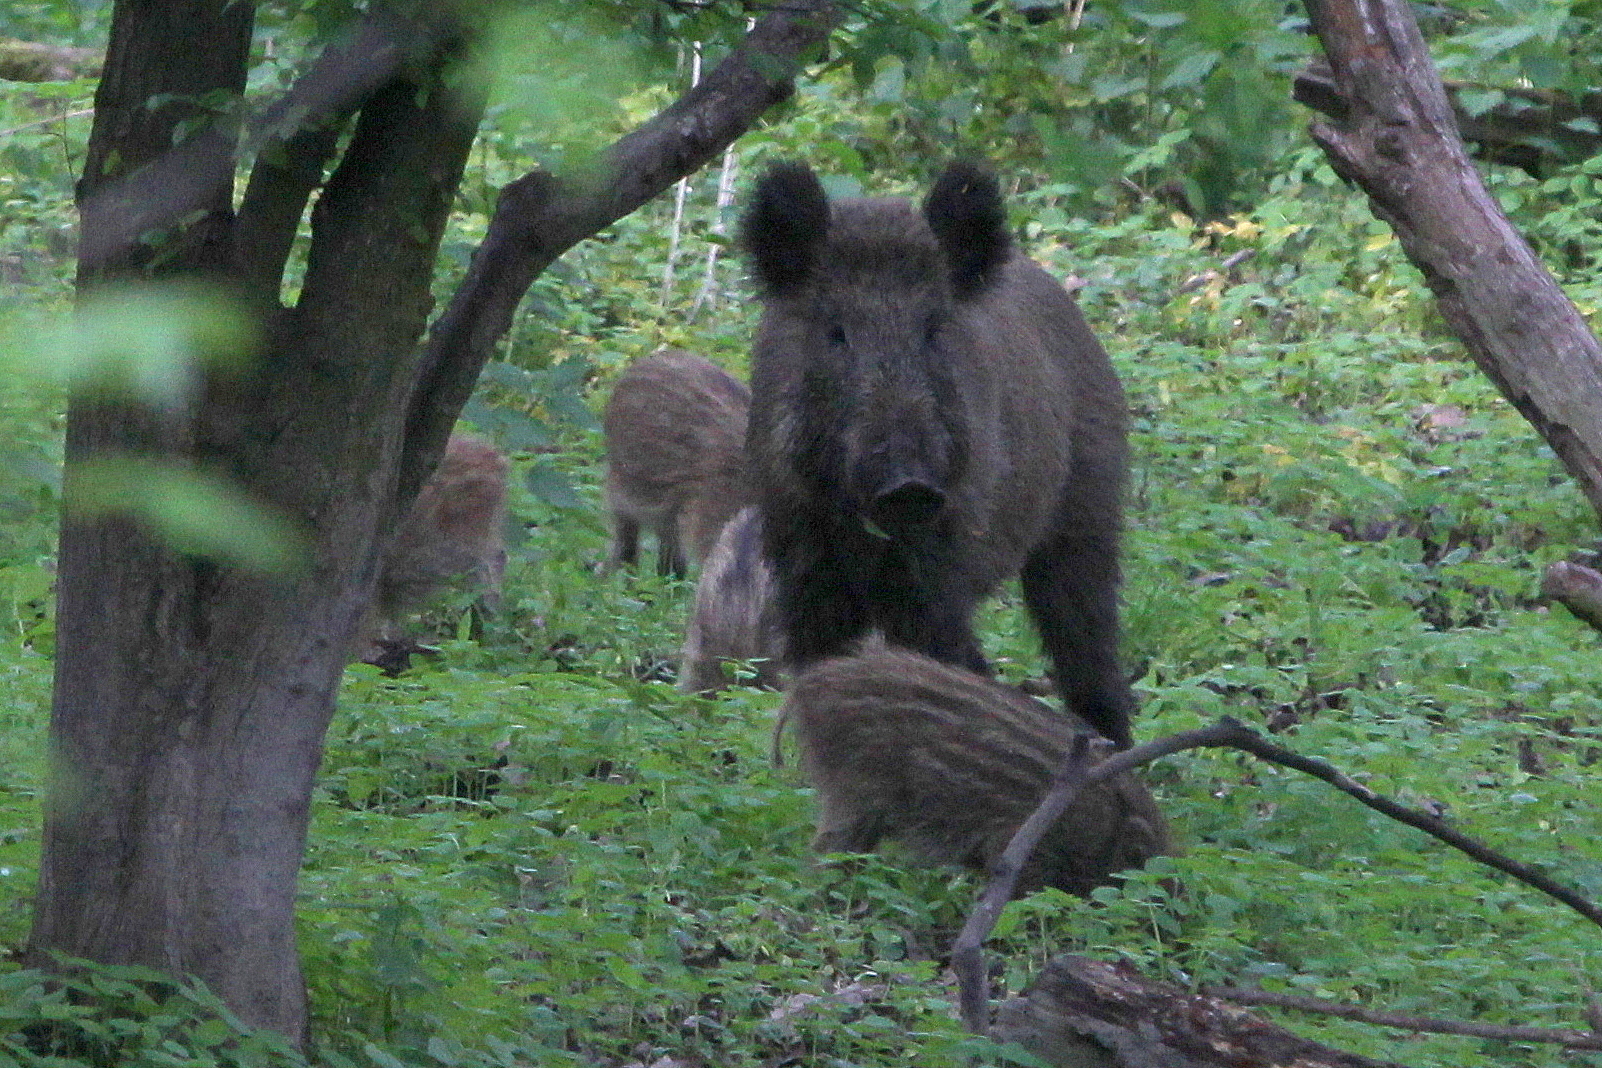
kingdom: Animalia
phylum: Chordata
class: Mammalia
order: Artiodactyla
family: Suidae
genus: Sus
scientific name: Sus scrofa
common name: Wild boar
